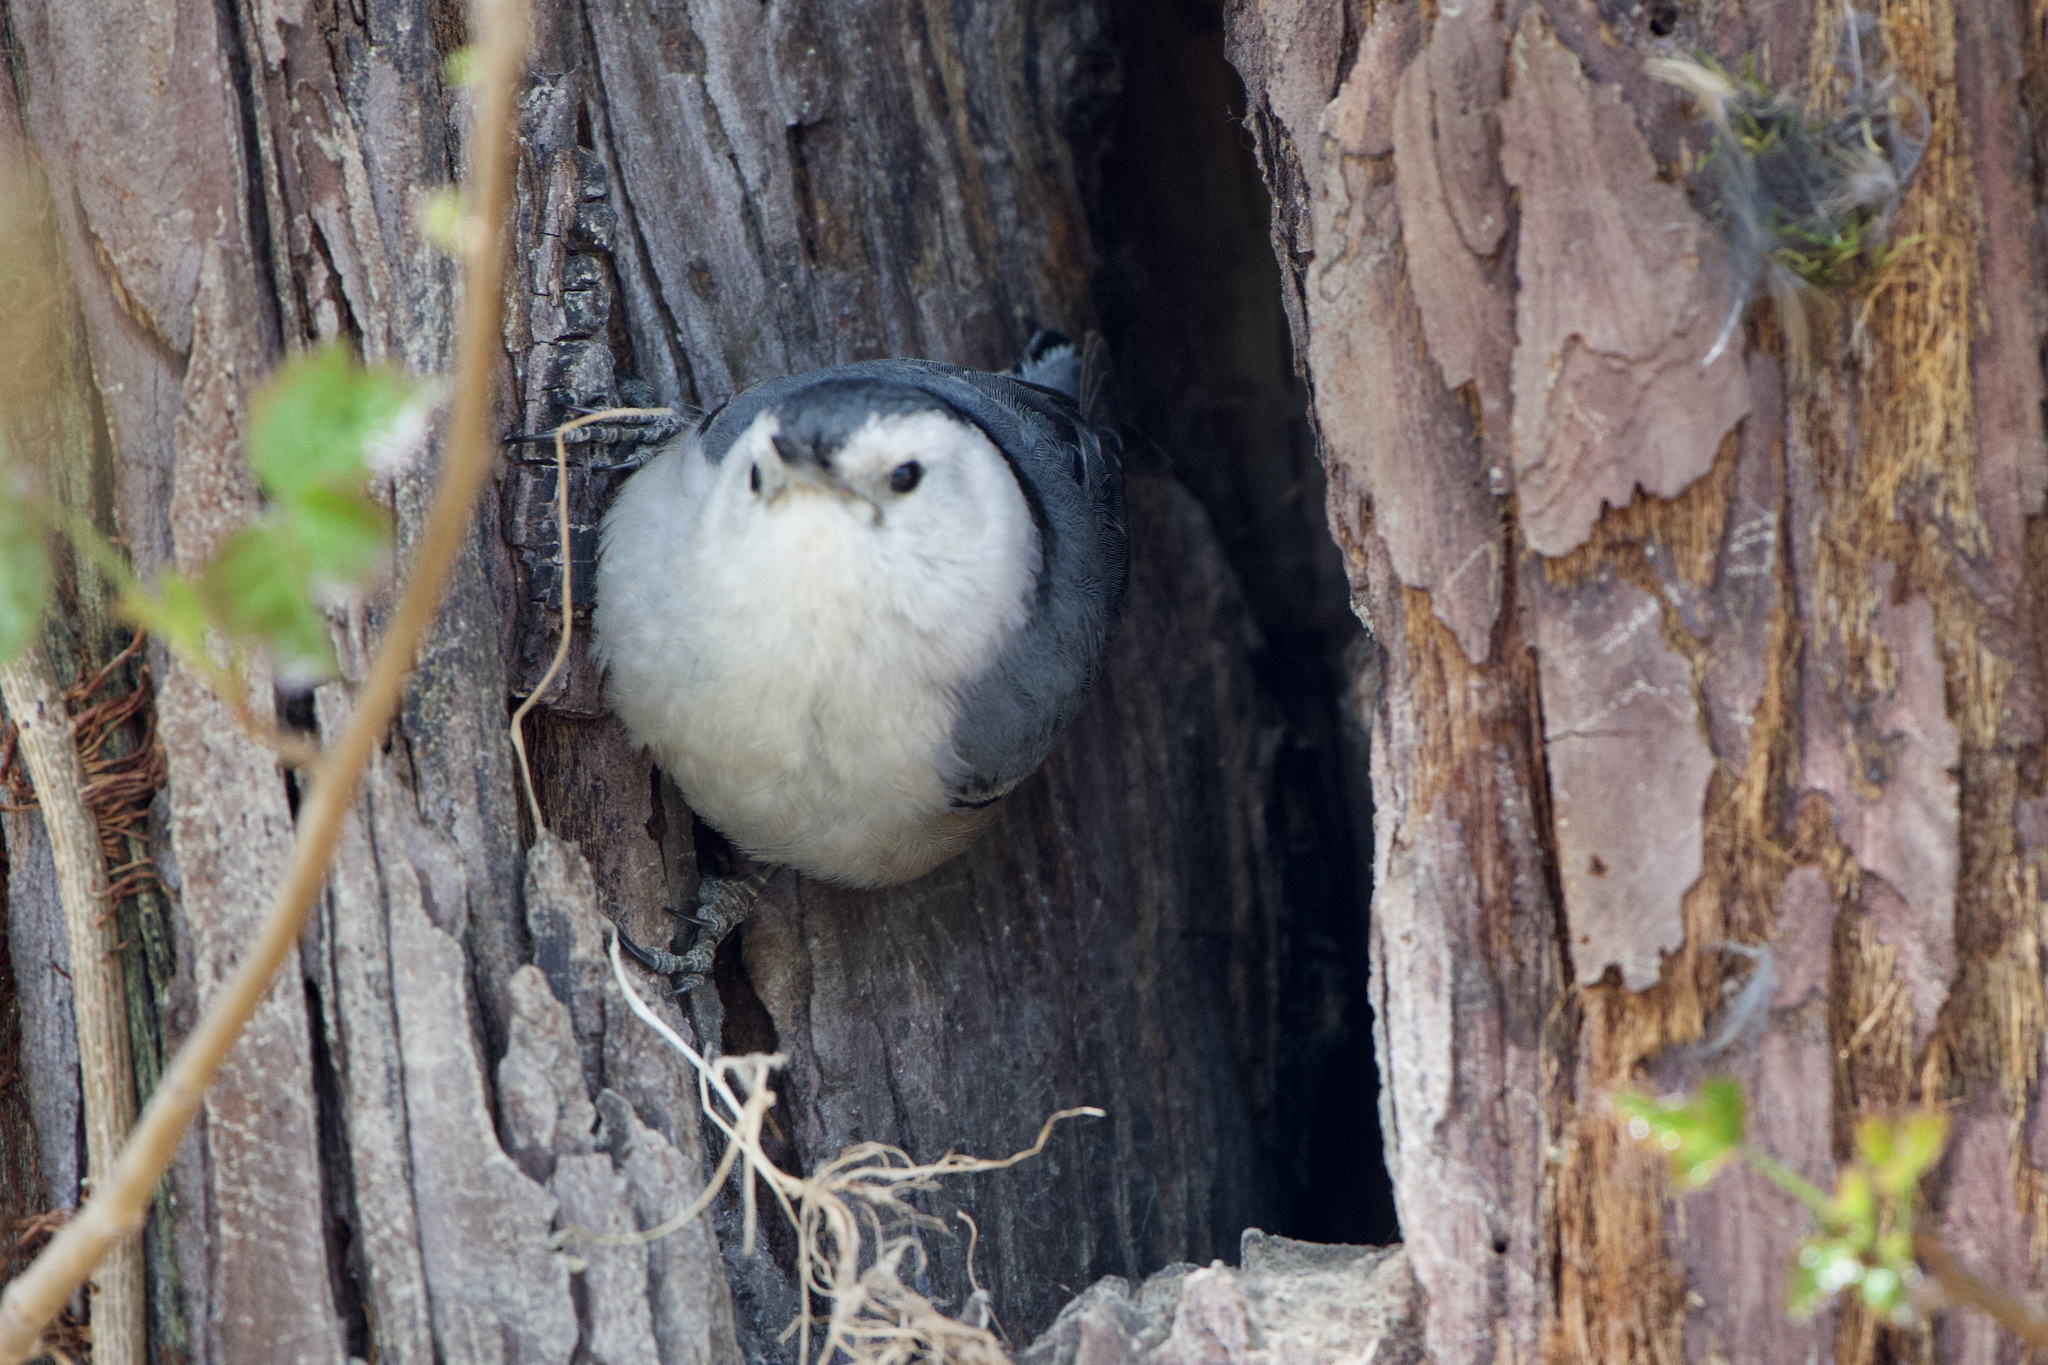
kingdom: Animalia
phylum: Chordata
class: Aves
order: Passeriformes
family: Sittidae
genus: Sitta
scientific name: Sitta carolinensis
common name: White-breasted nuthatch
